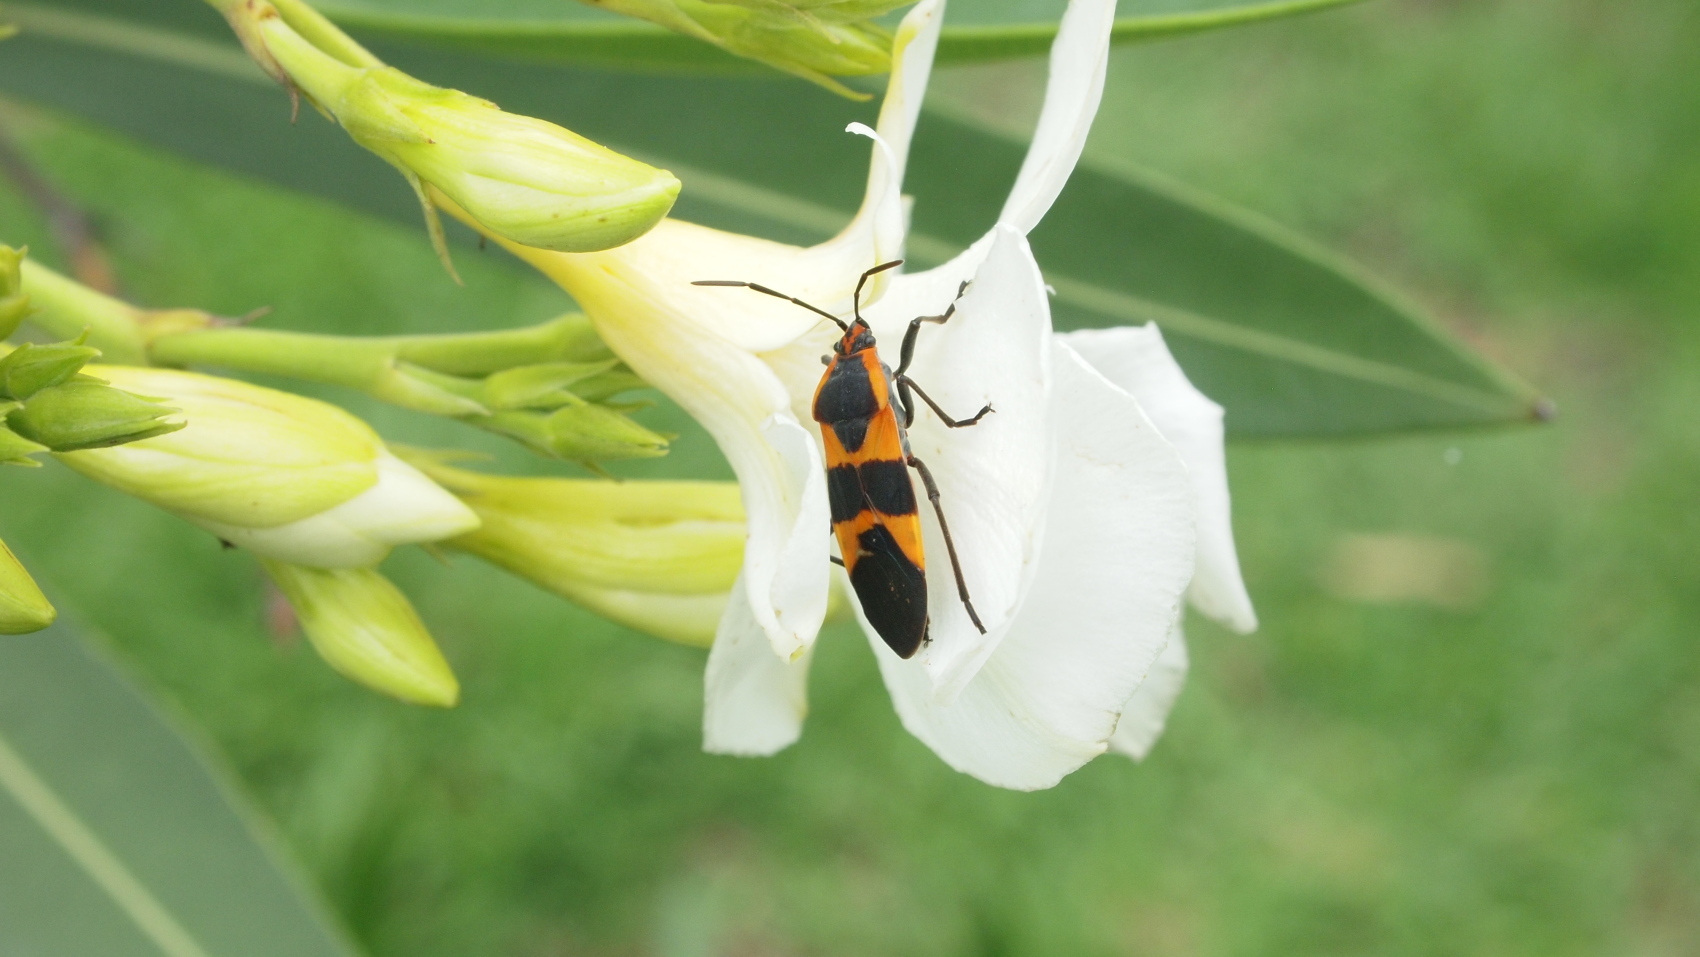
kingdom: Animalia
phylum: Arthropoda
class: Insecta
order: Hemiptera
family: Lygaeidae
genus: Oncopeltus
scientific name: Oncopeltus fasciatus
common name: Large milkweed bug
